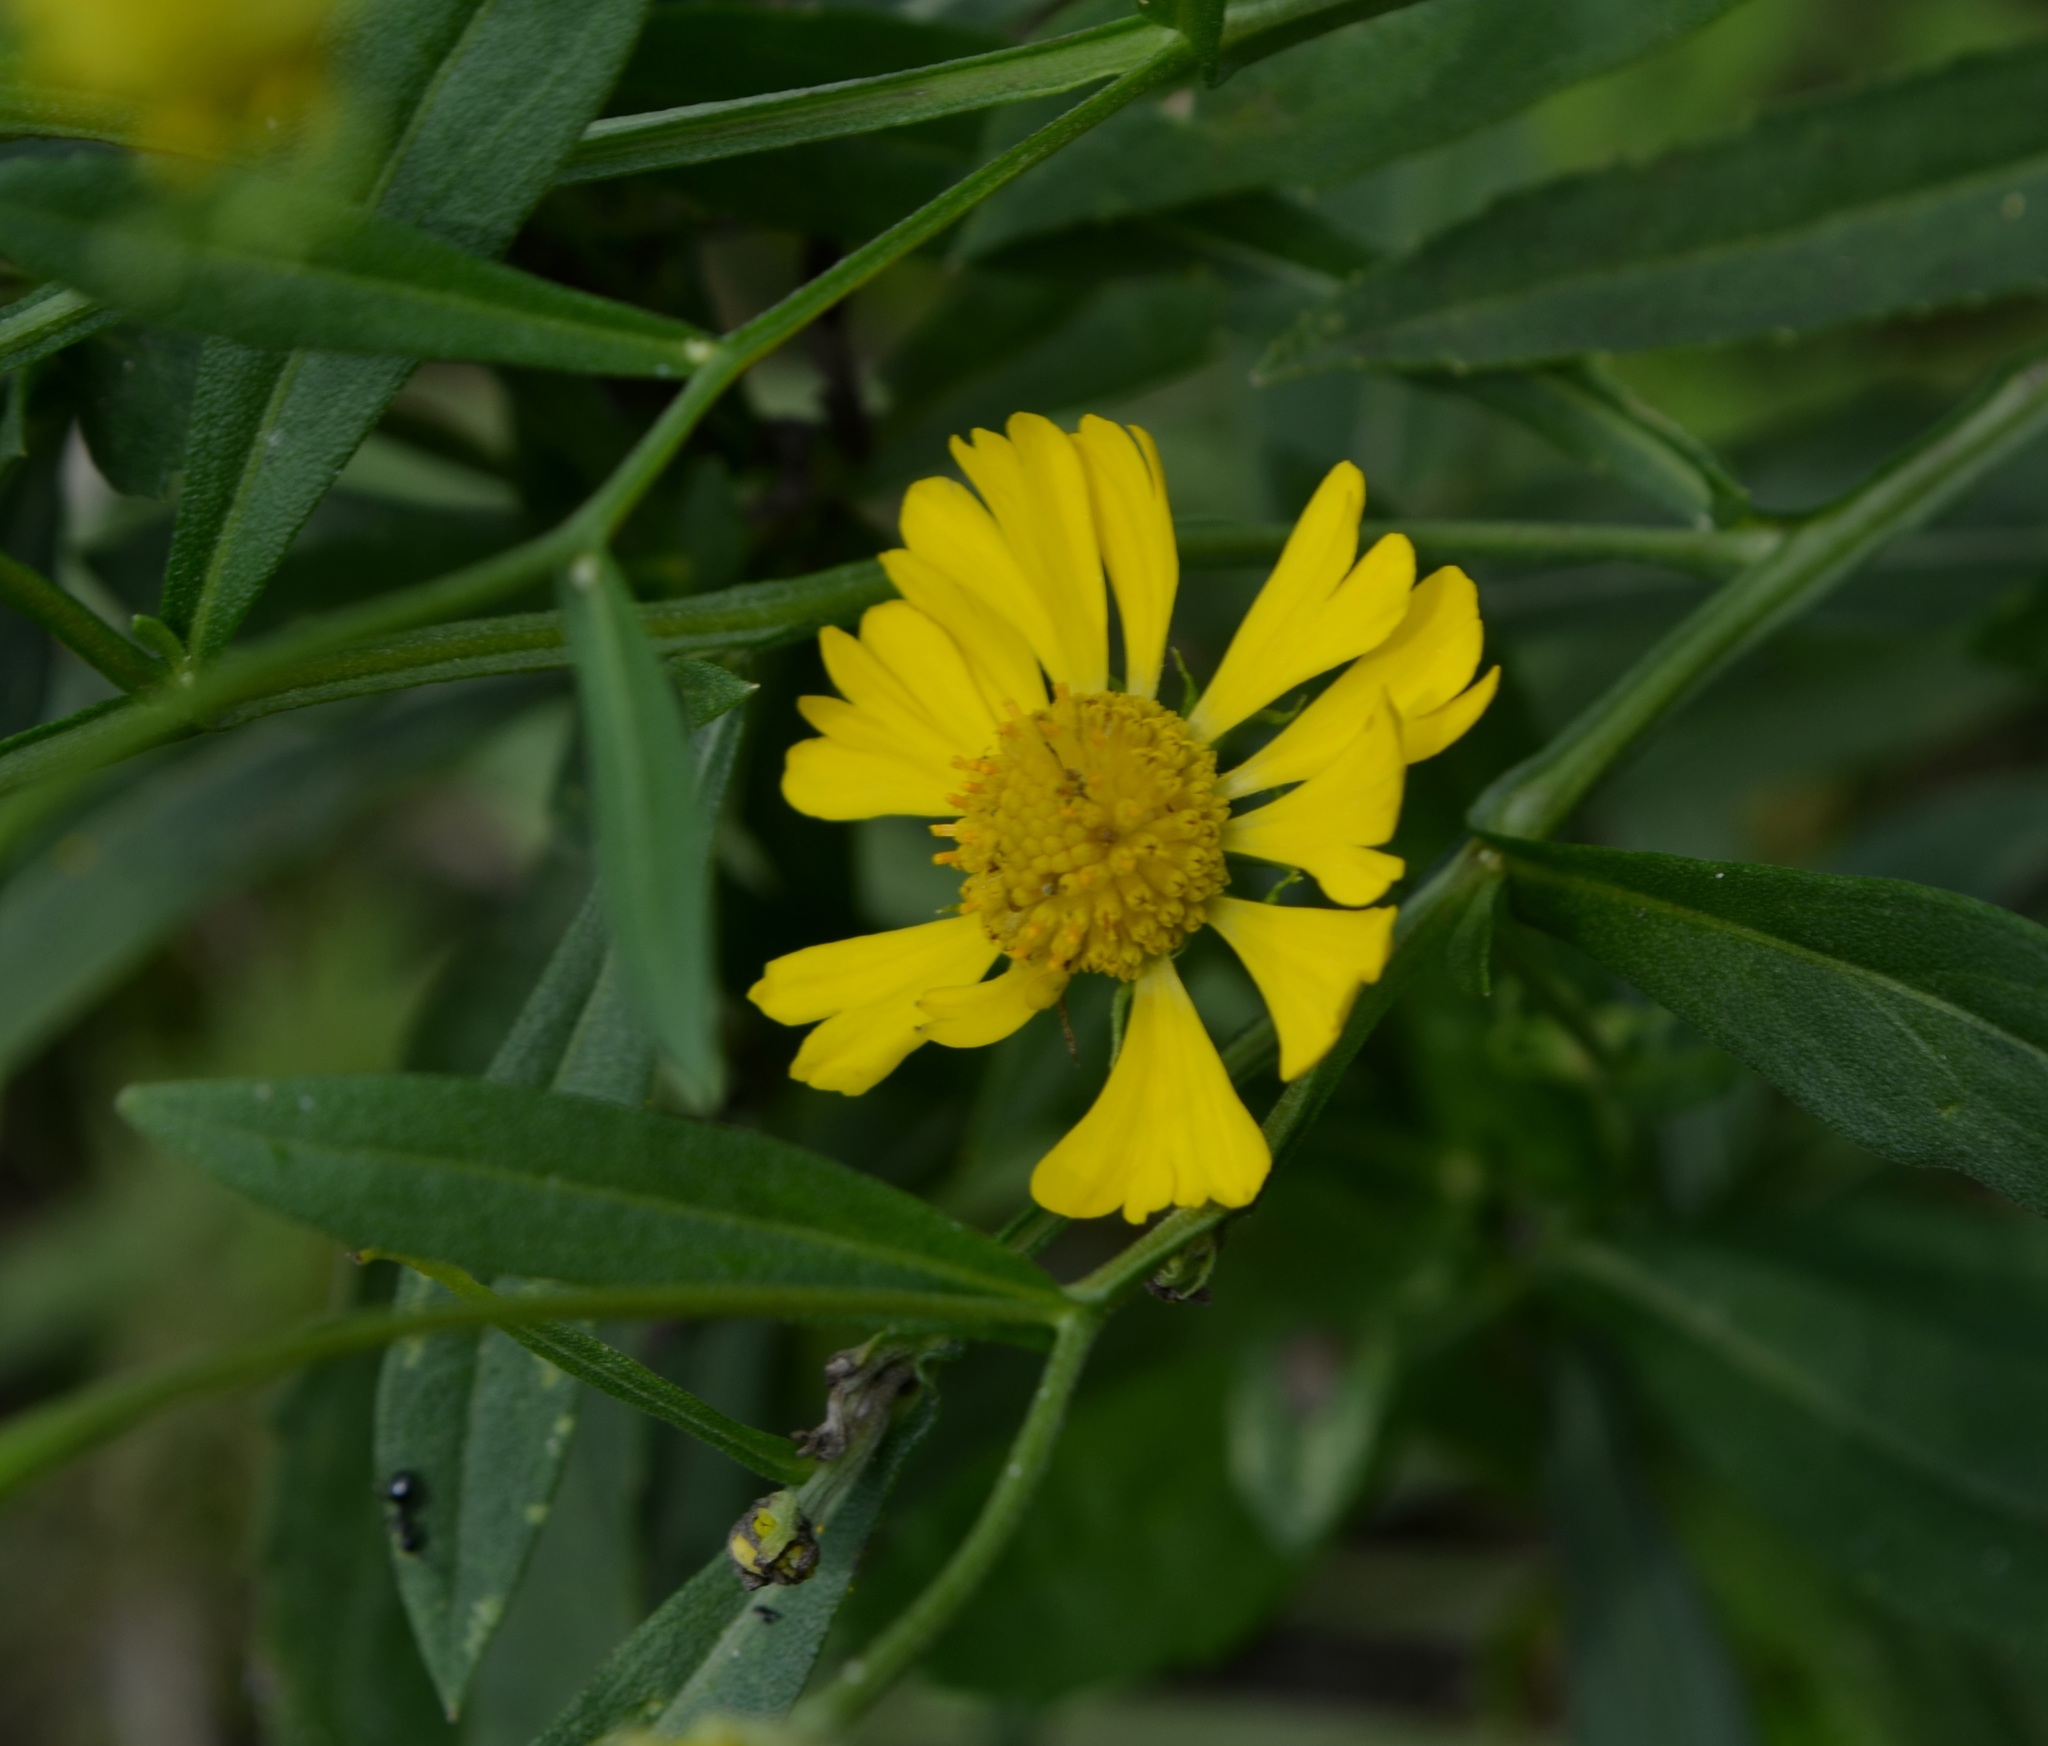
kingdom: Plantae
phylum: Tracheophyta
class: Magnoliopsida
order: Asterales
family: Asteraceae
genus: Helenium
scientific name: Helenium autumnale
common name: Sneezeweed
